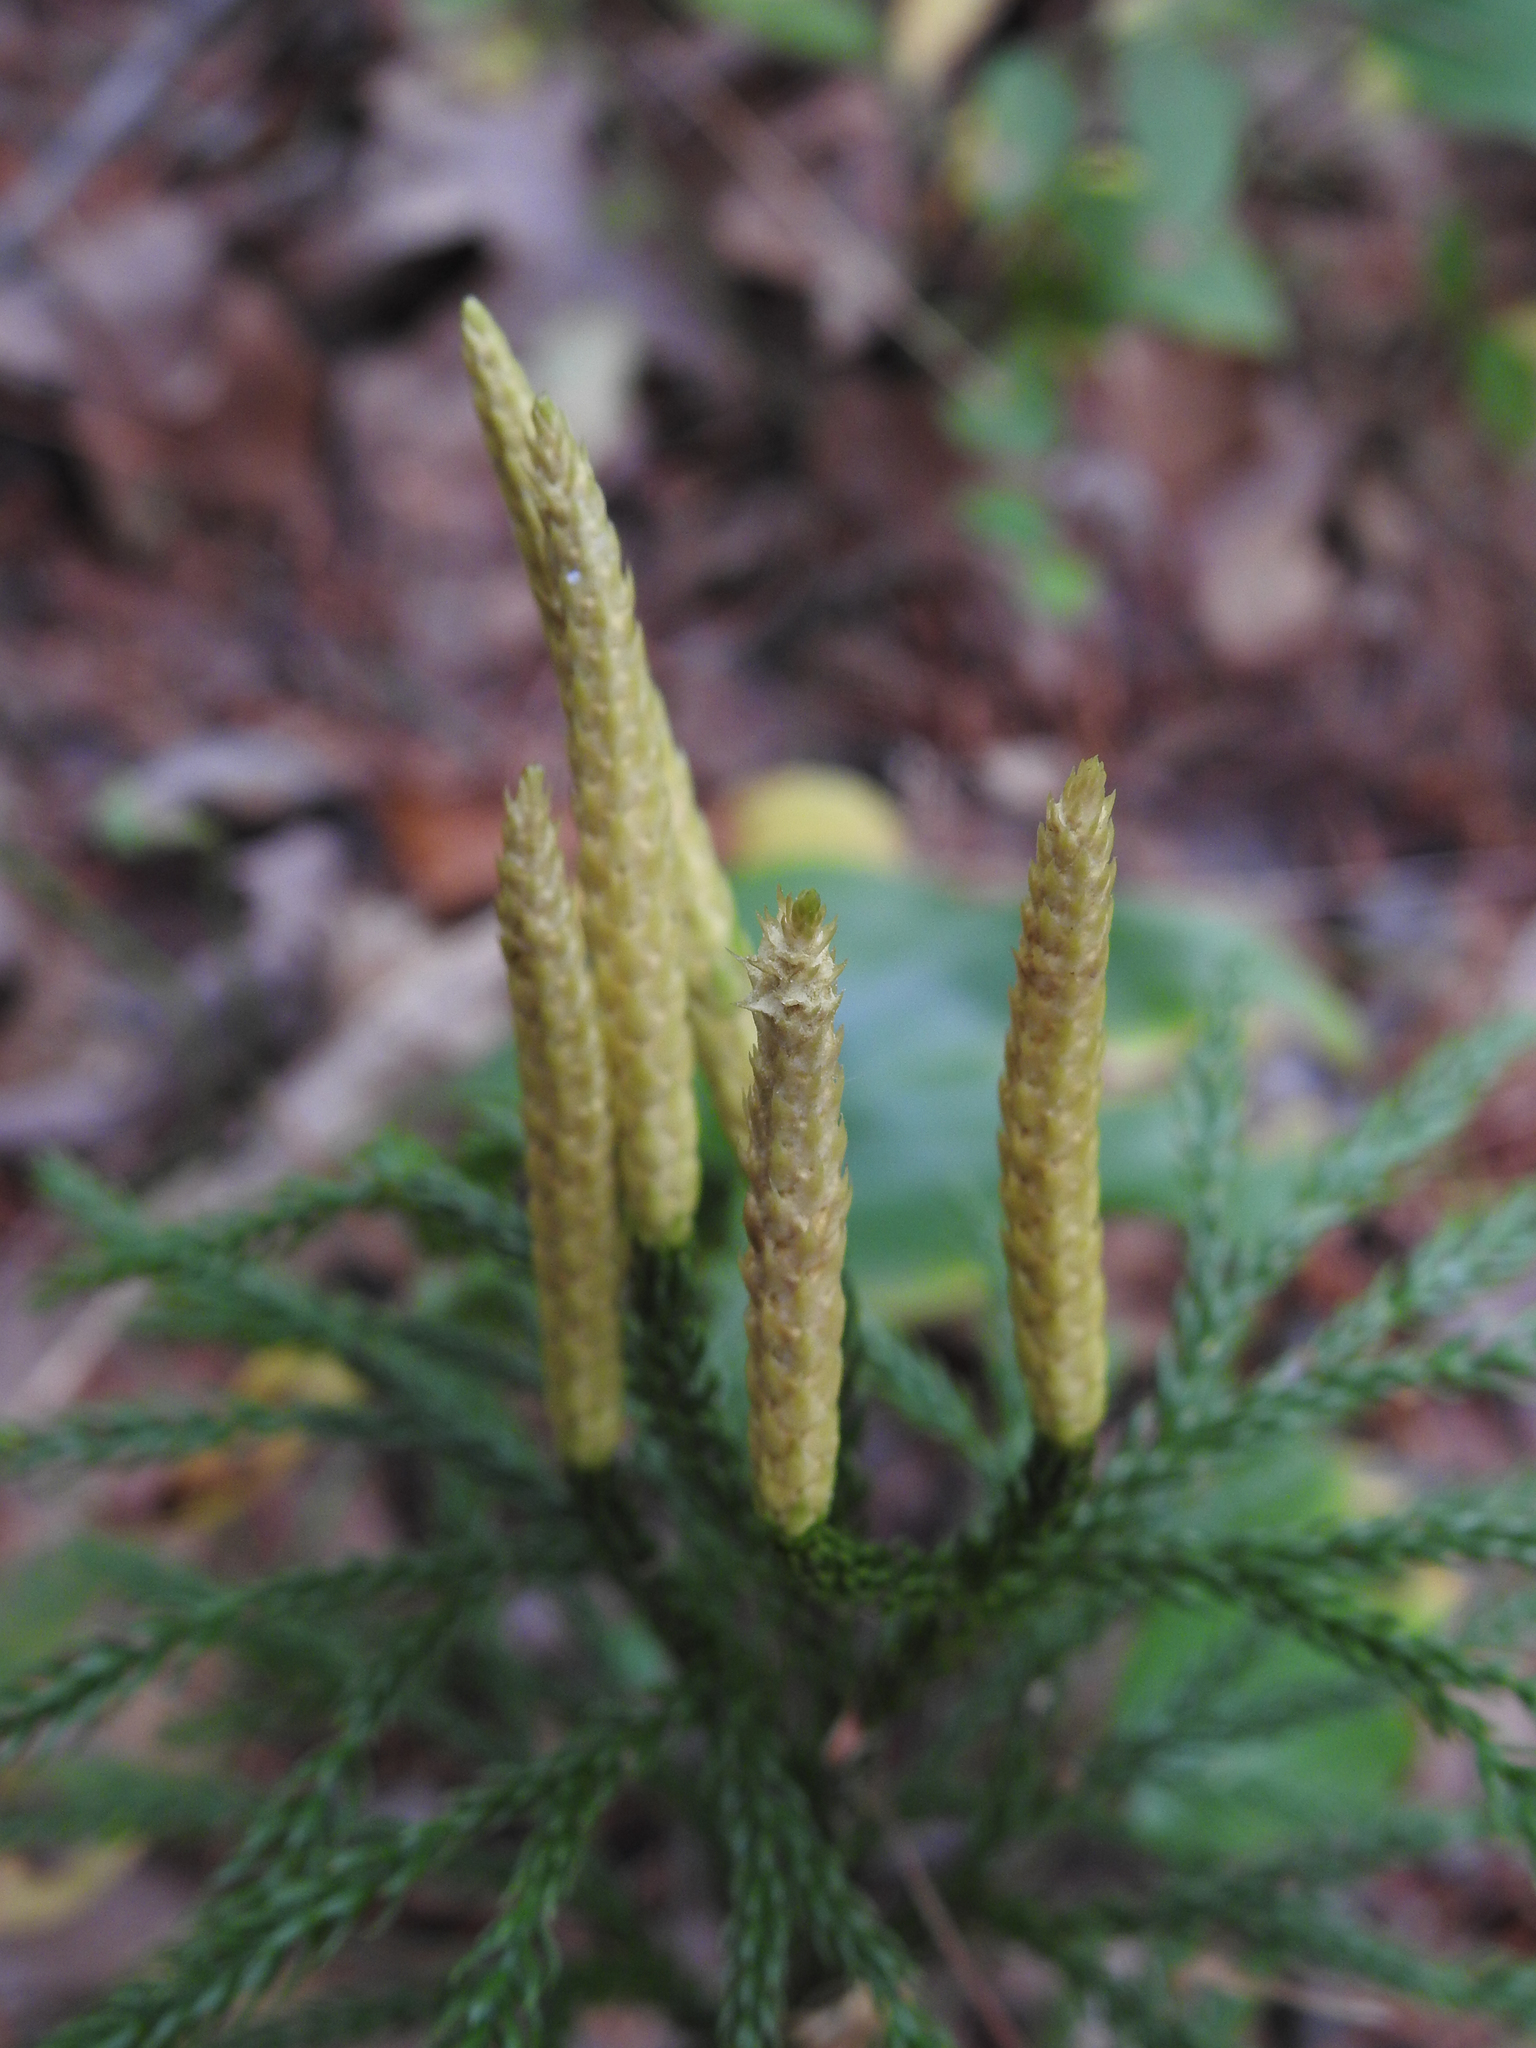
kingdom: Plantae
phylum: Tracheophyta
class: Lycopodiopsida
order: Lycopodiales
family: Lycopodiaceae
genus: Dendrolycopodium
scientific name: Dendrolycopodium obscurum
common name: Common ground-pine
